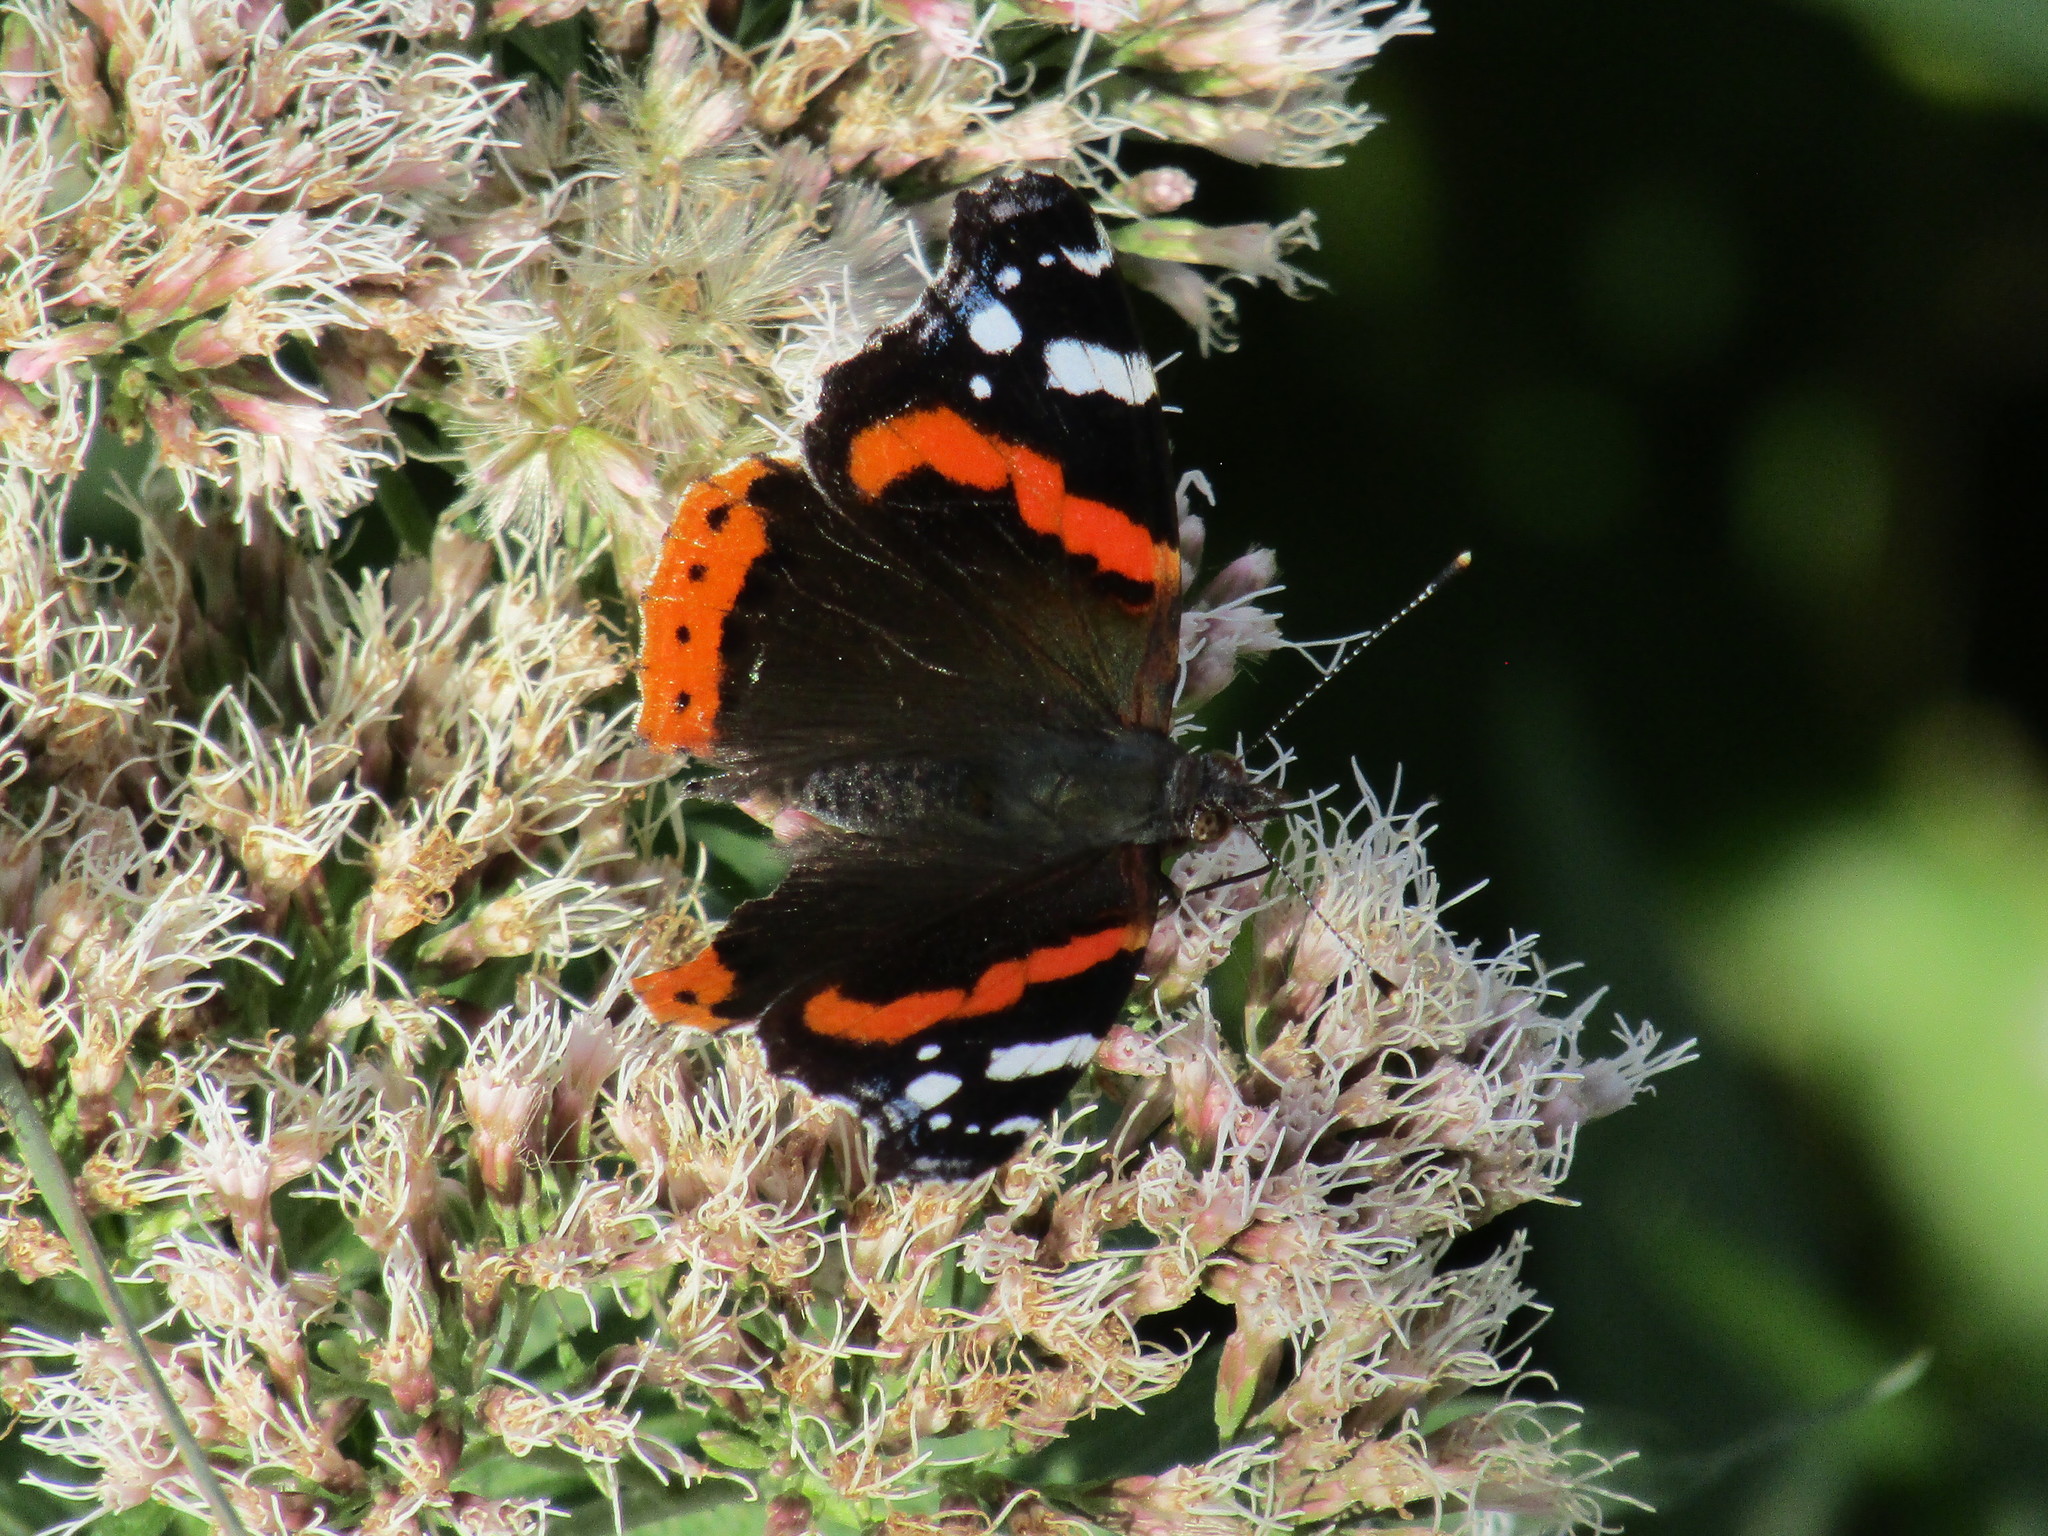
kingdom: Animalia
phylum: Arthropoda
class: Insecta
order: Lepidoptera
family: Nymphalidae
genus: Vanessa
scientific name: Vanessa atalanta
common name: Red admiral
